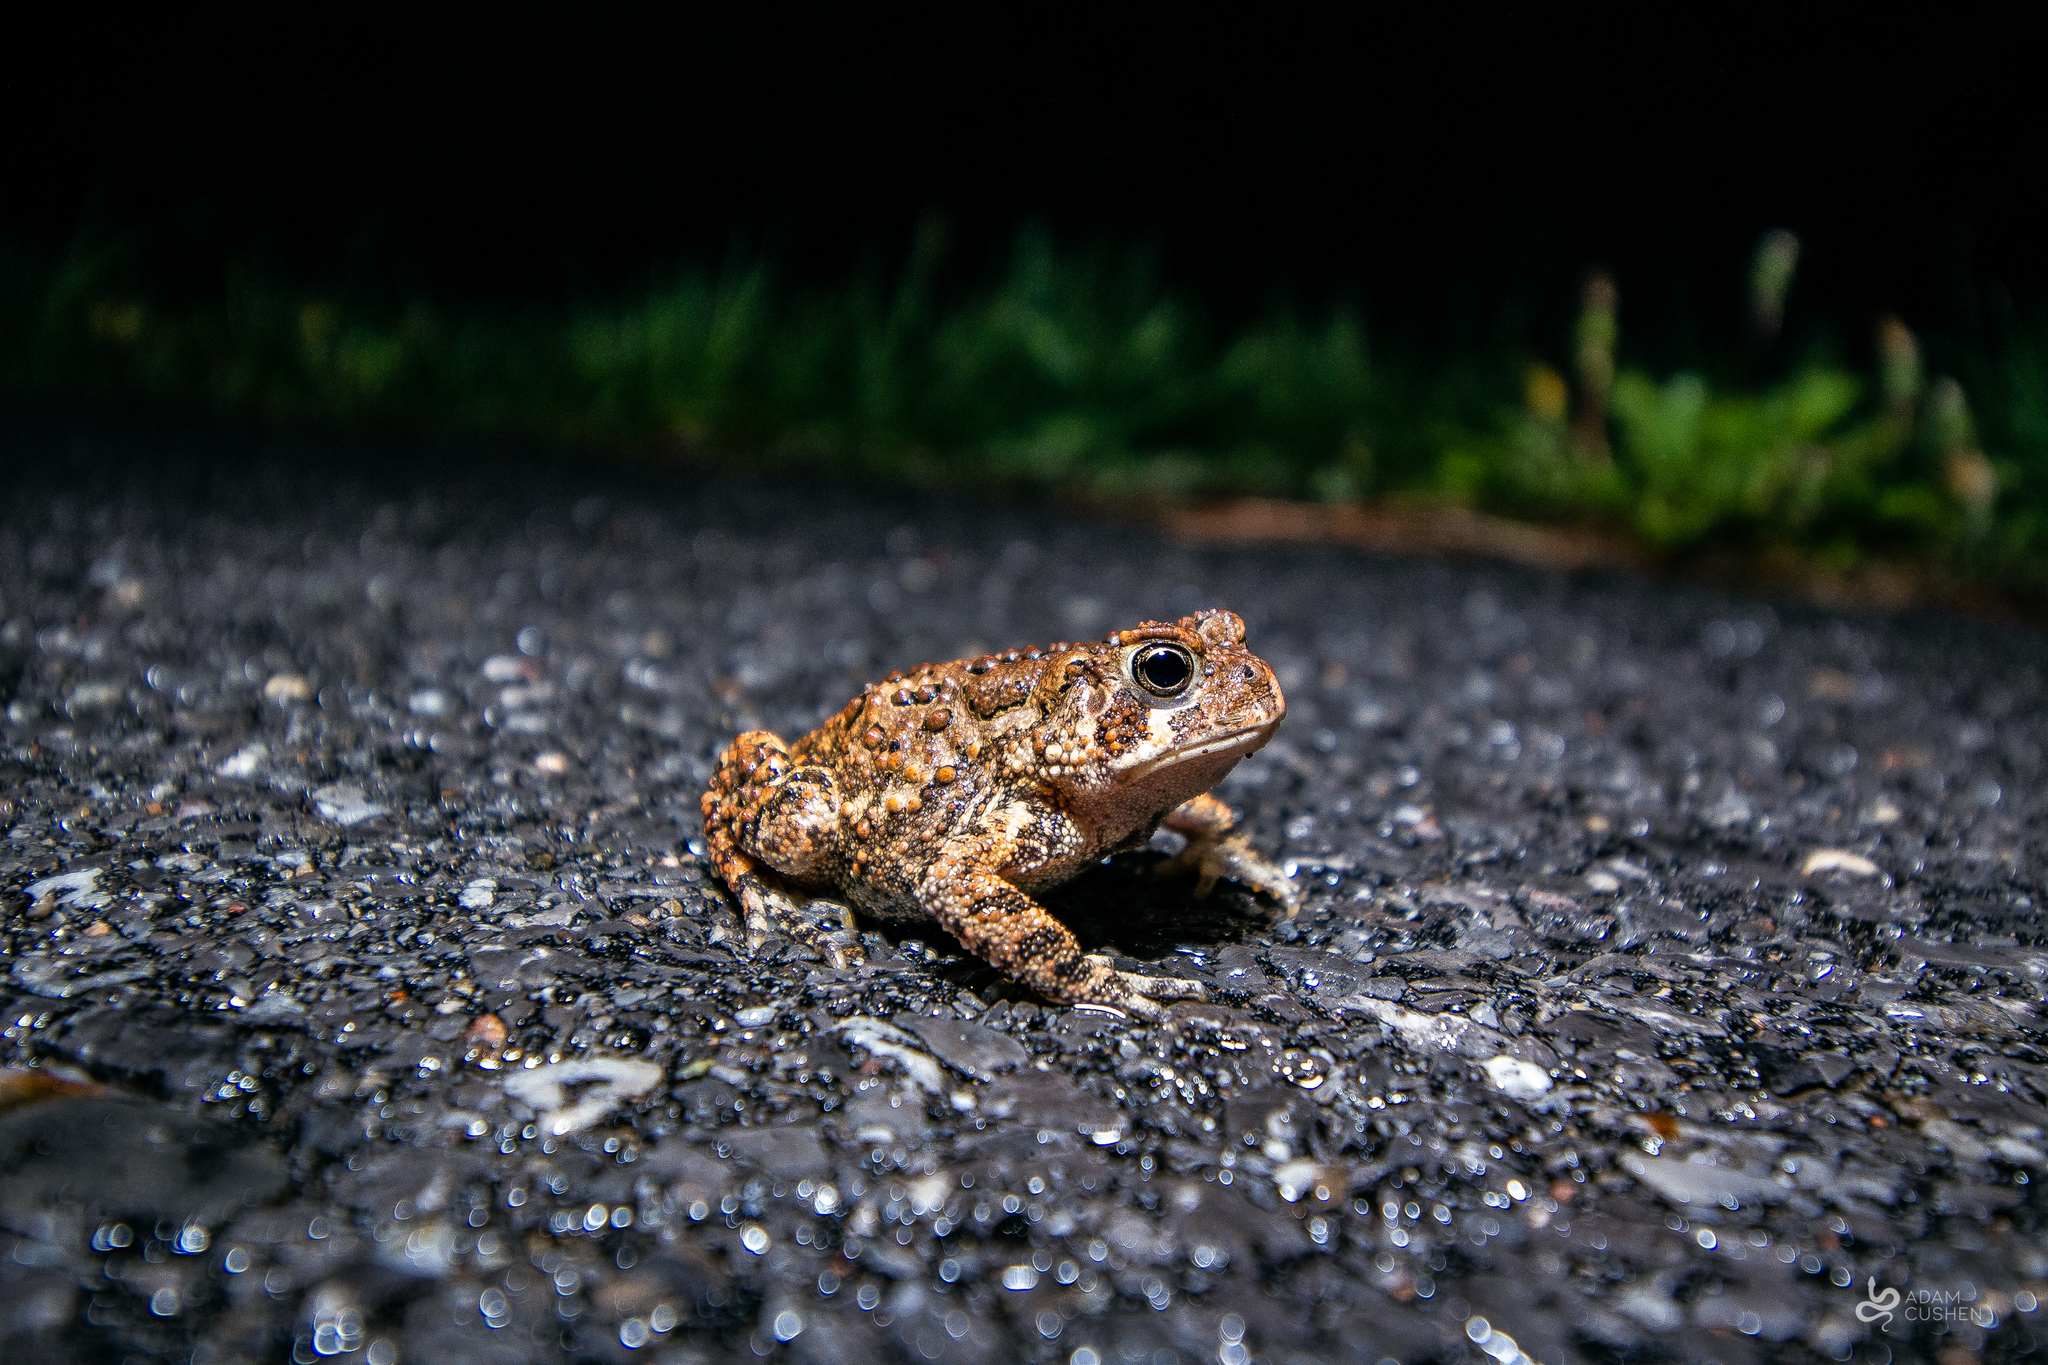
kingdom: Animalia
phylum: Chordata
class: Amphibia
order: Anura
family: Bufonidae
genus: Anaxyrus
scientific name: Anaxyrus americanus
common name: American toad
